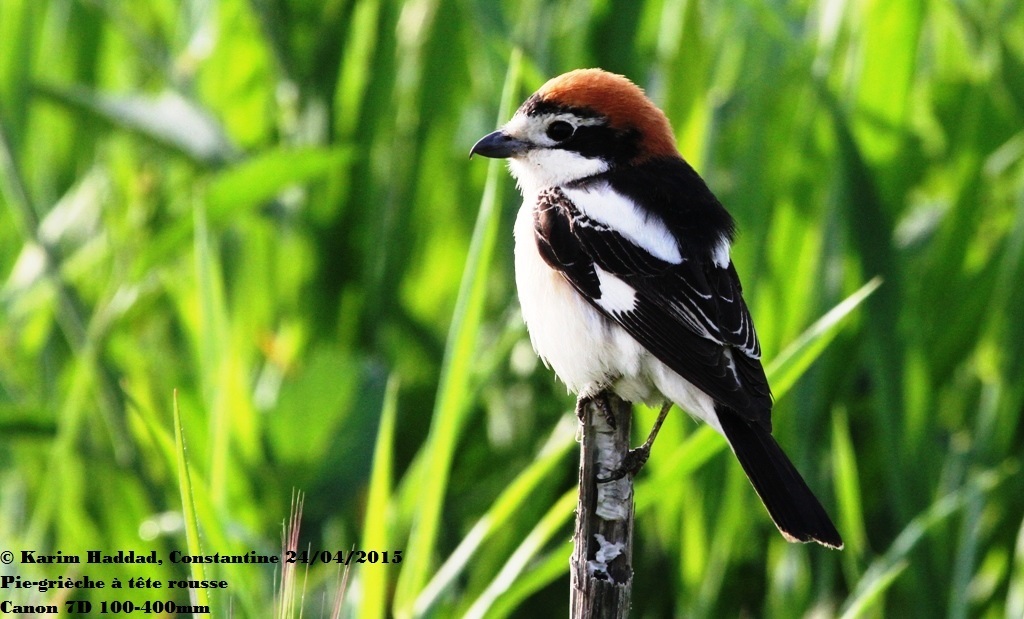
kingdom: Animalia
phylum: Chordata
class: Aves
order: Passeriformes
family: Laniidae
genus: Lanius
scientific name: Lanius senator
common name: Woodchat shrike
